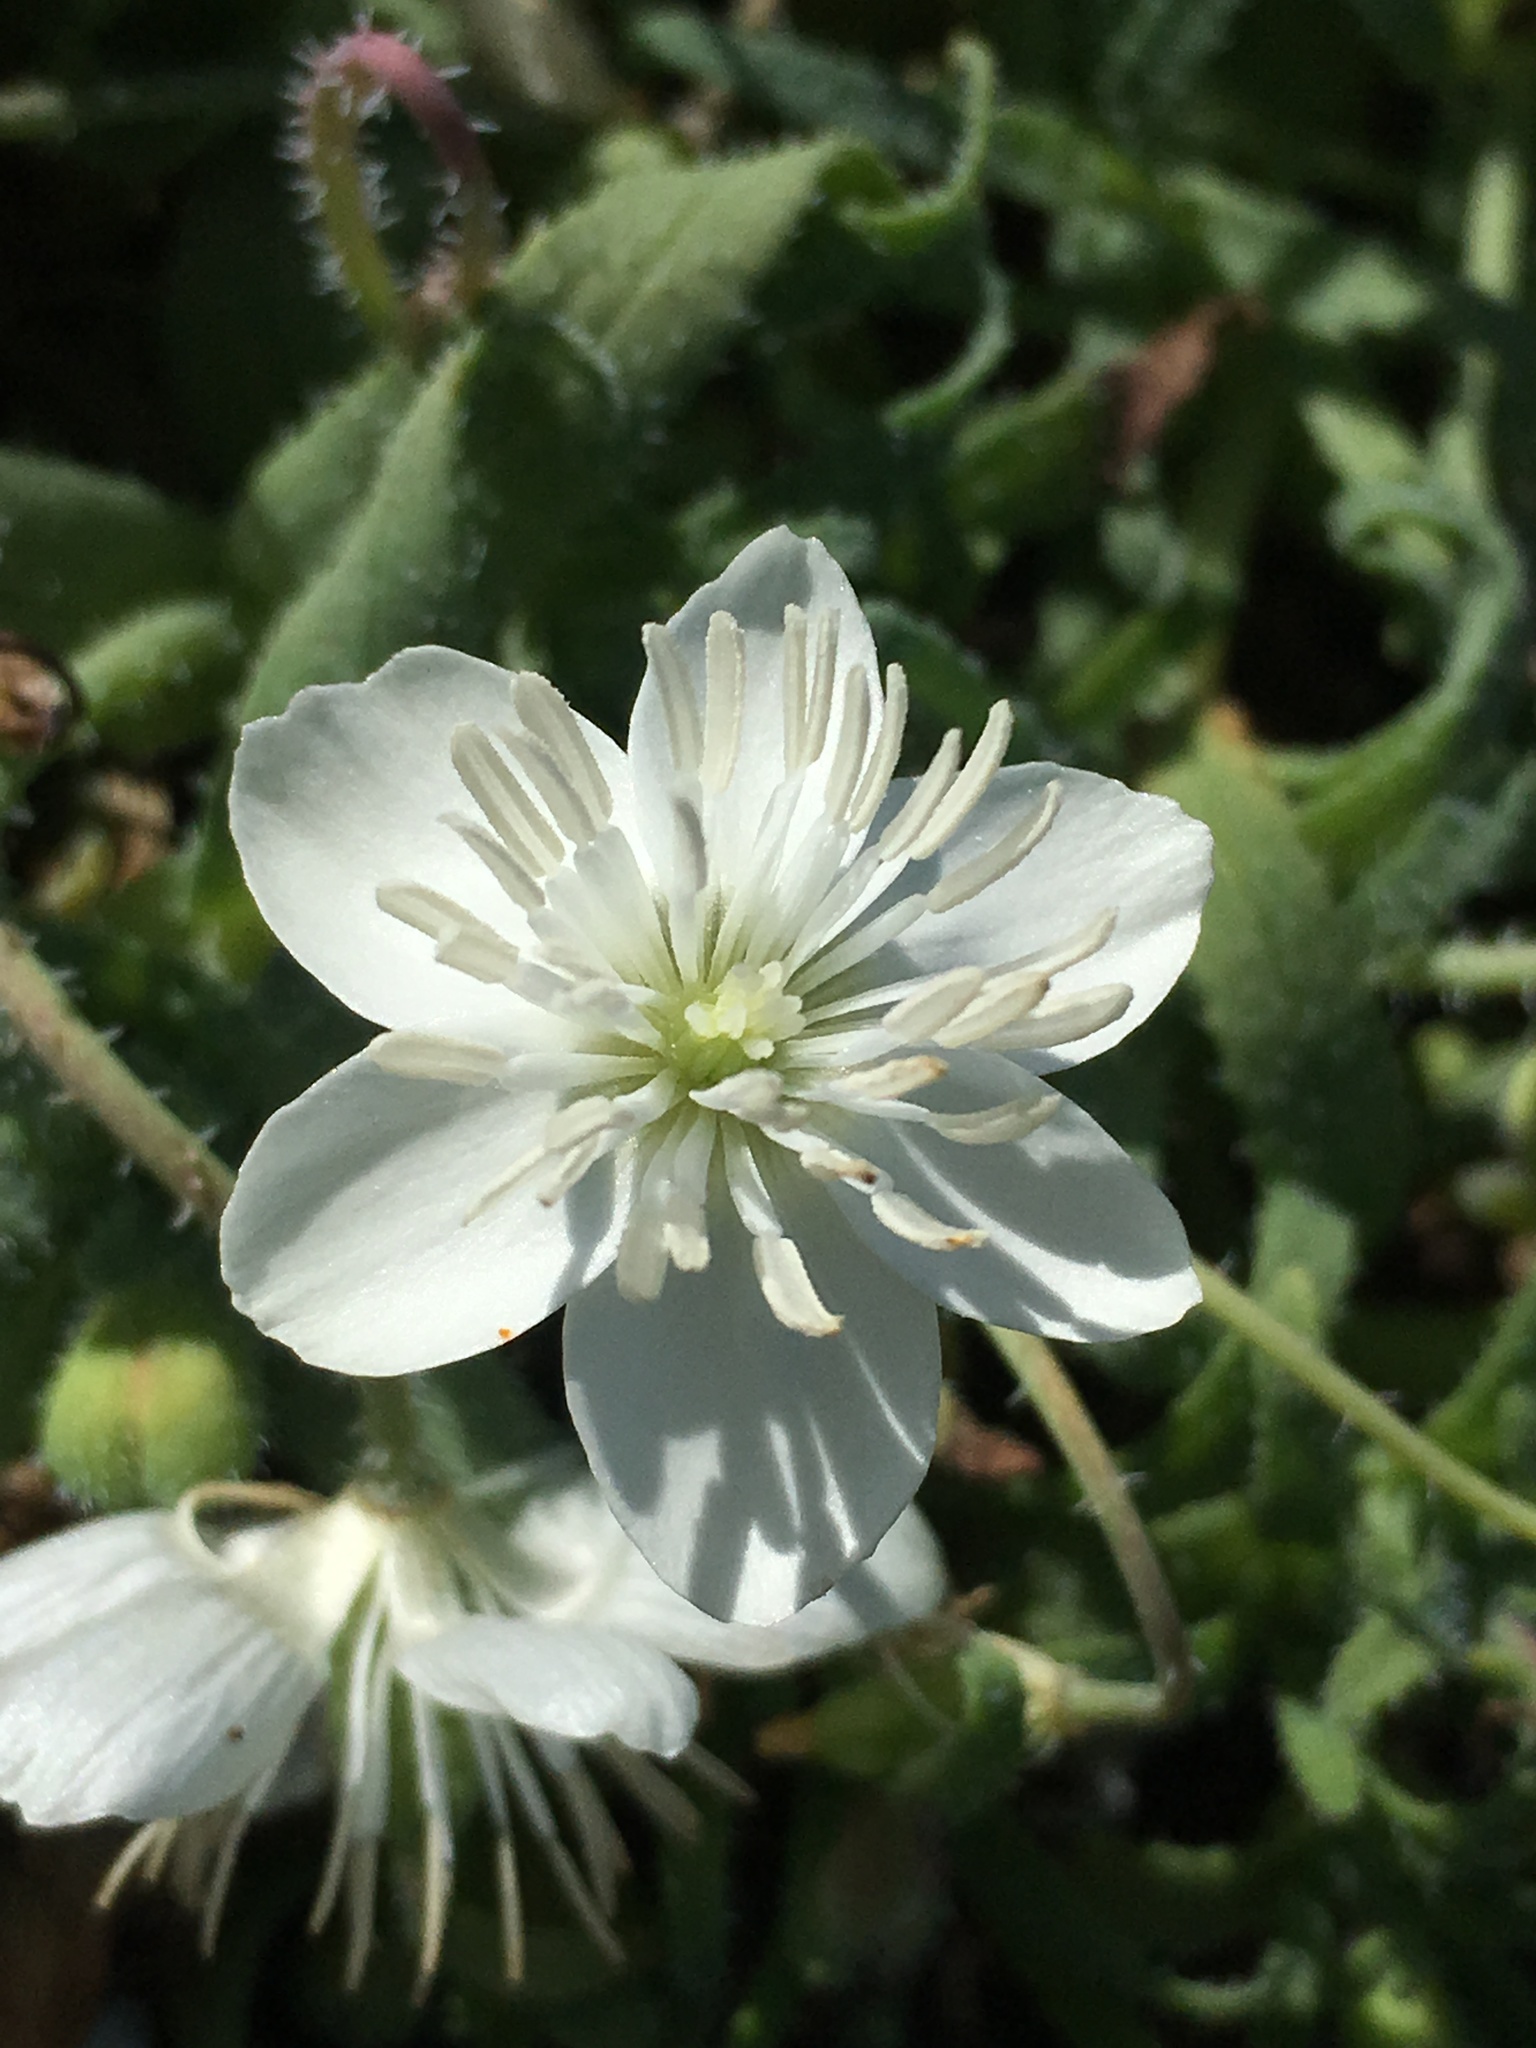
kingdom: Plantae
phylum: Tracheophyta
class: Magnoliopsida
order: Ranunculales
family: Papaveraceae
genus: Platystemon
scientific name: Platystemon californicus
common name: Cream-cups
